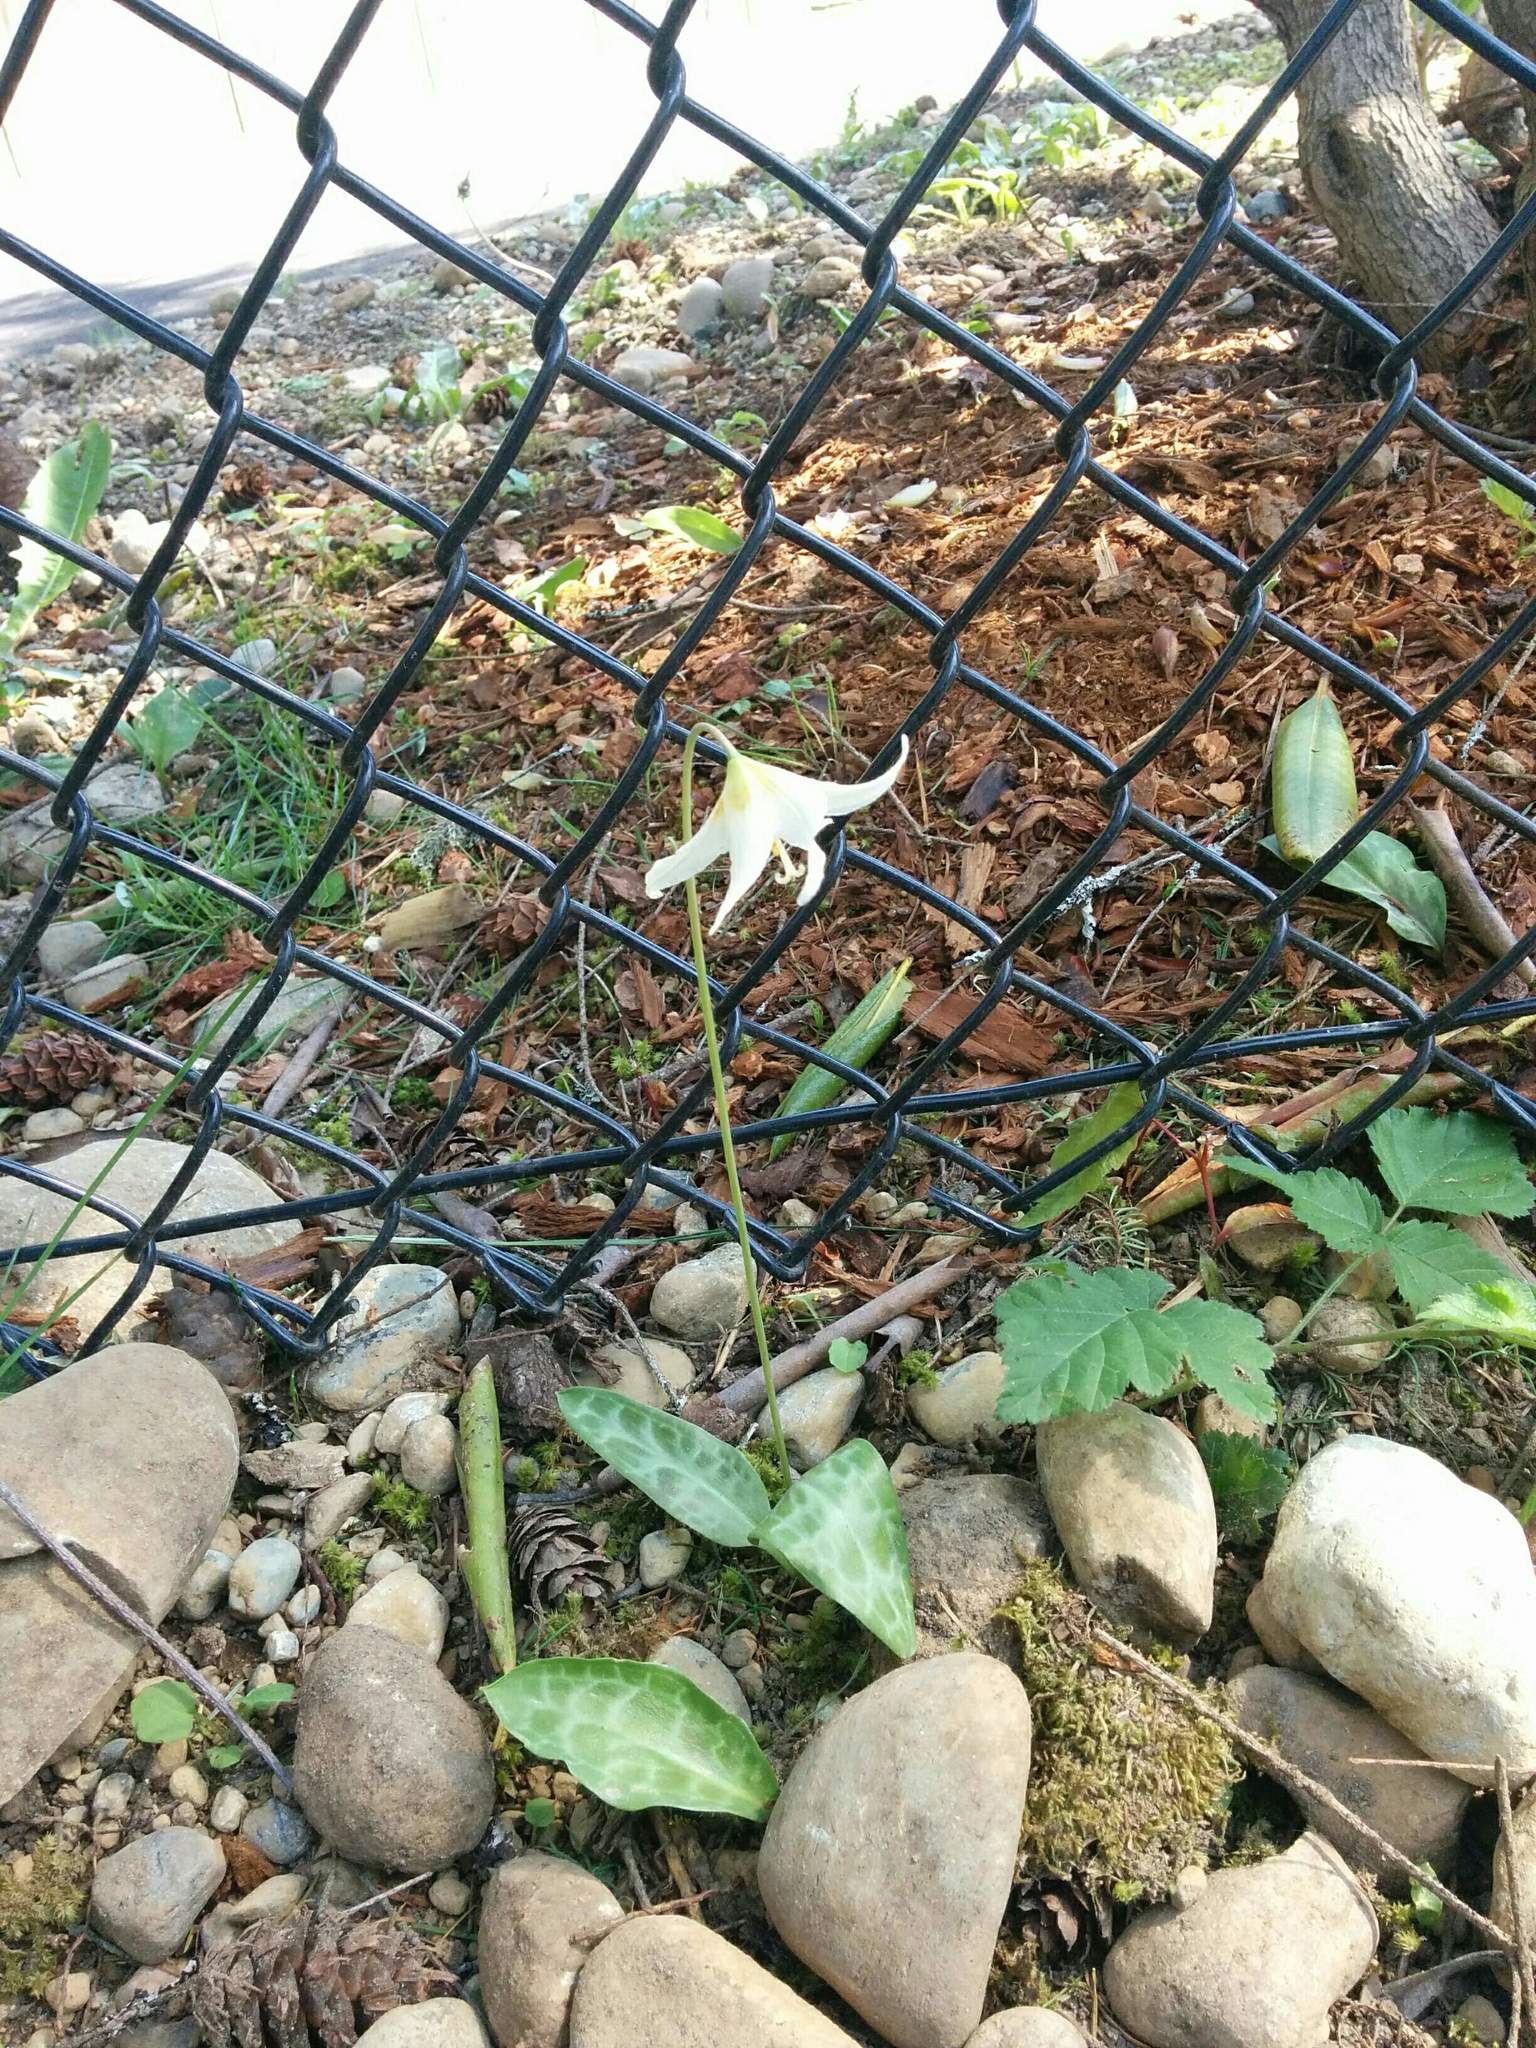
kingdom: Plantae
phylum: Tracheophyta
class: Liliopsida
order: Liliales
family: Liliaceae
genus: Erythronium
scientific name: Erythronium oregonum
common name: Giant adder's-tongue
